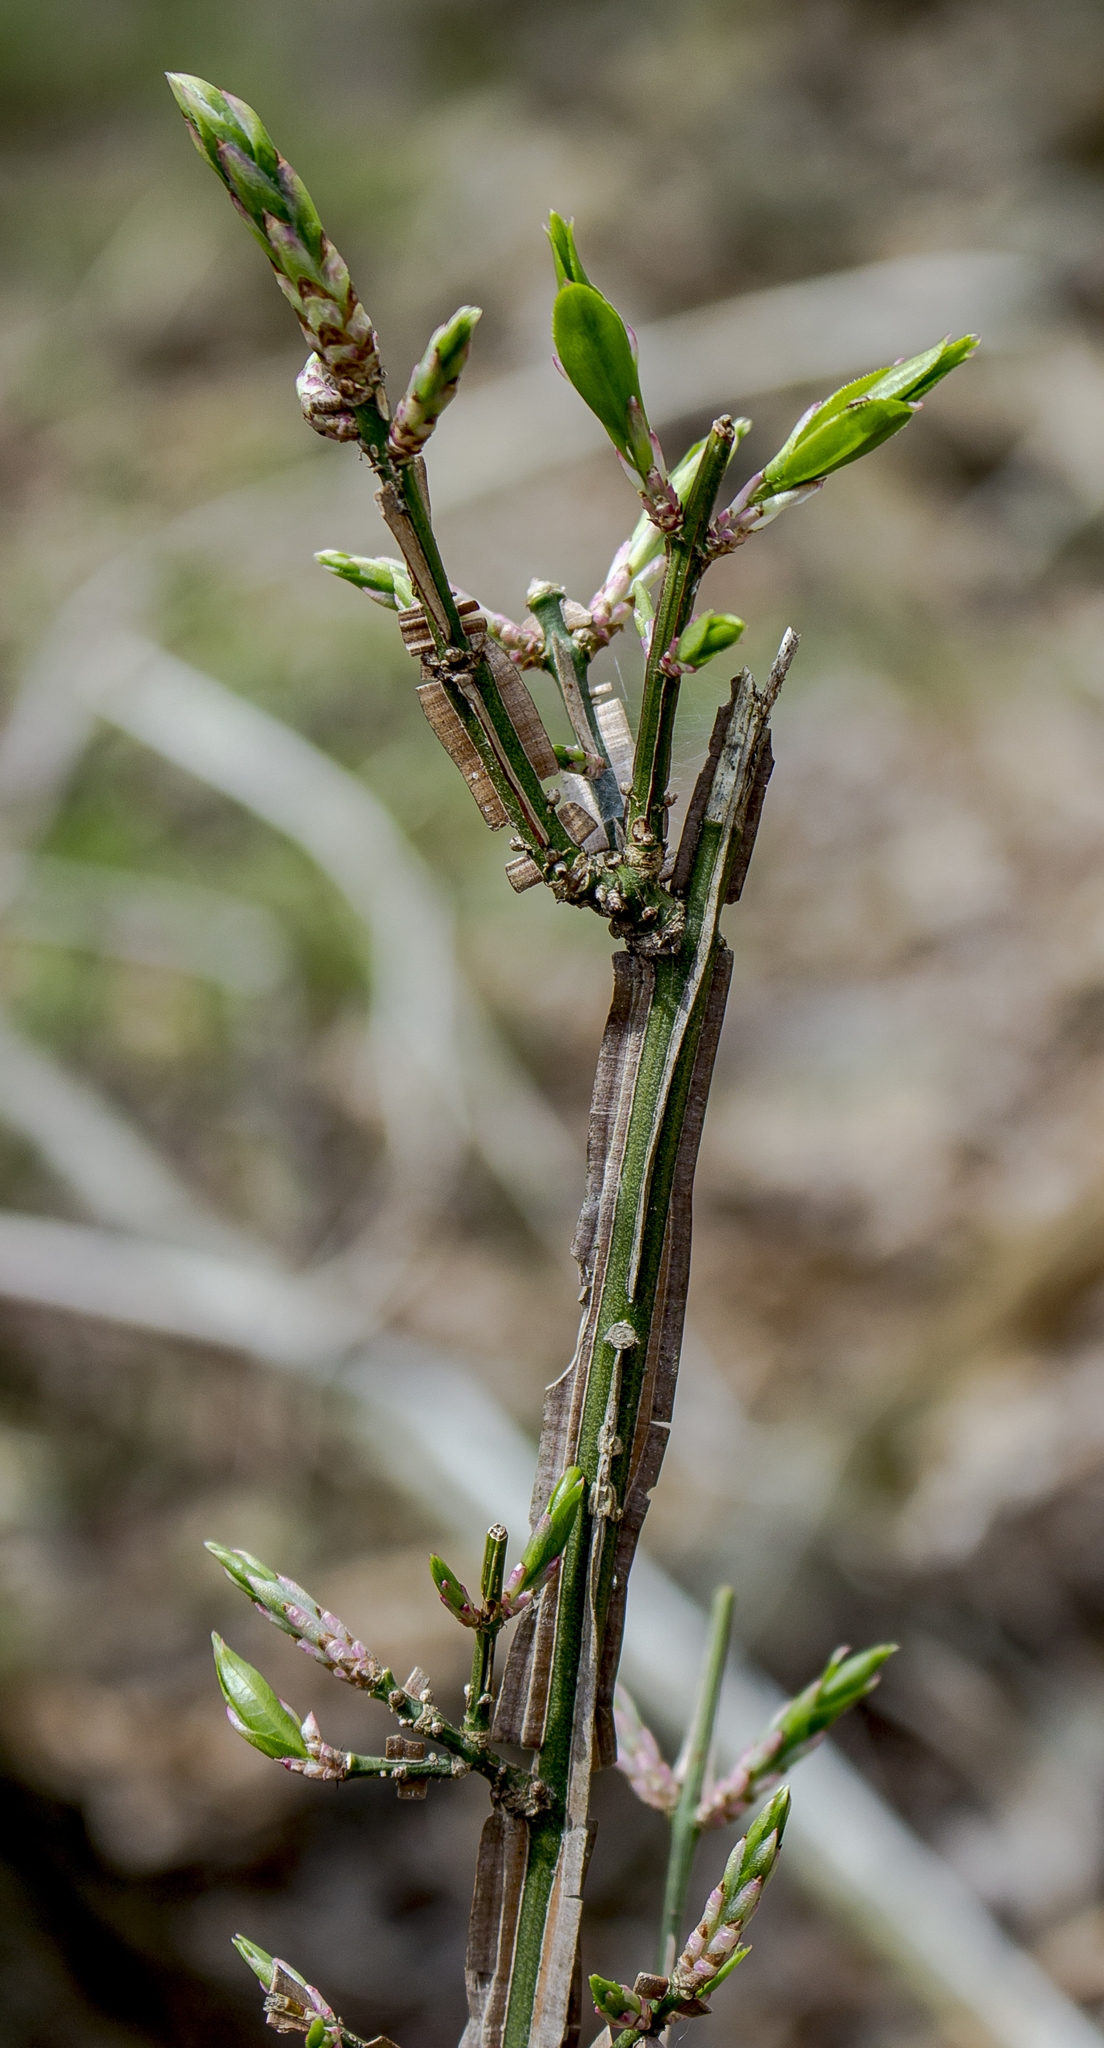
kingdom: Plantae
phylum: Tracheophyta
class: Magnoliopsida
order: Celastrales
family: Celastraceae
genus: Euonymus
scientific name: Euonymus alatus
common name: Winged euonymus
